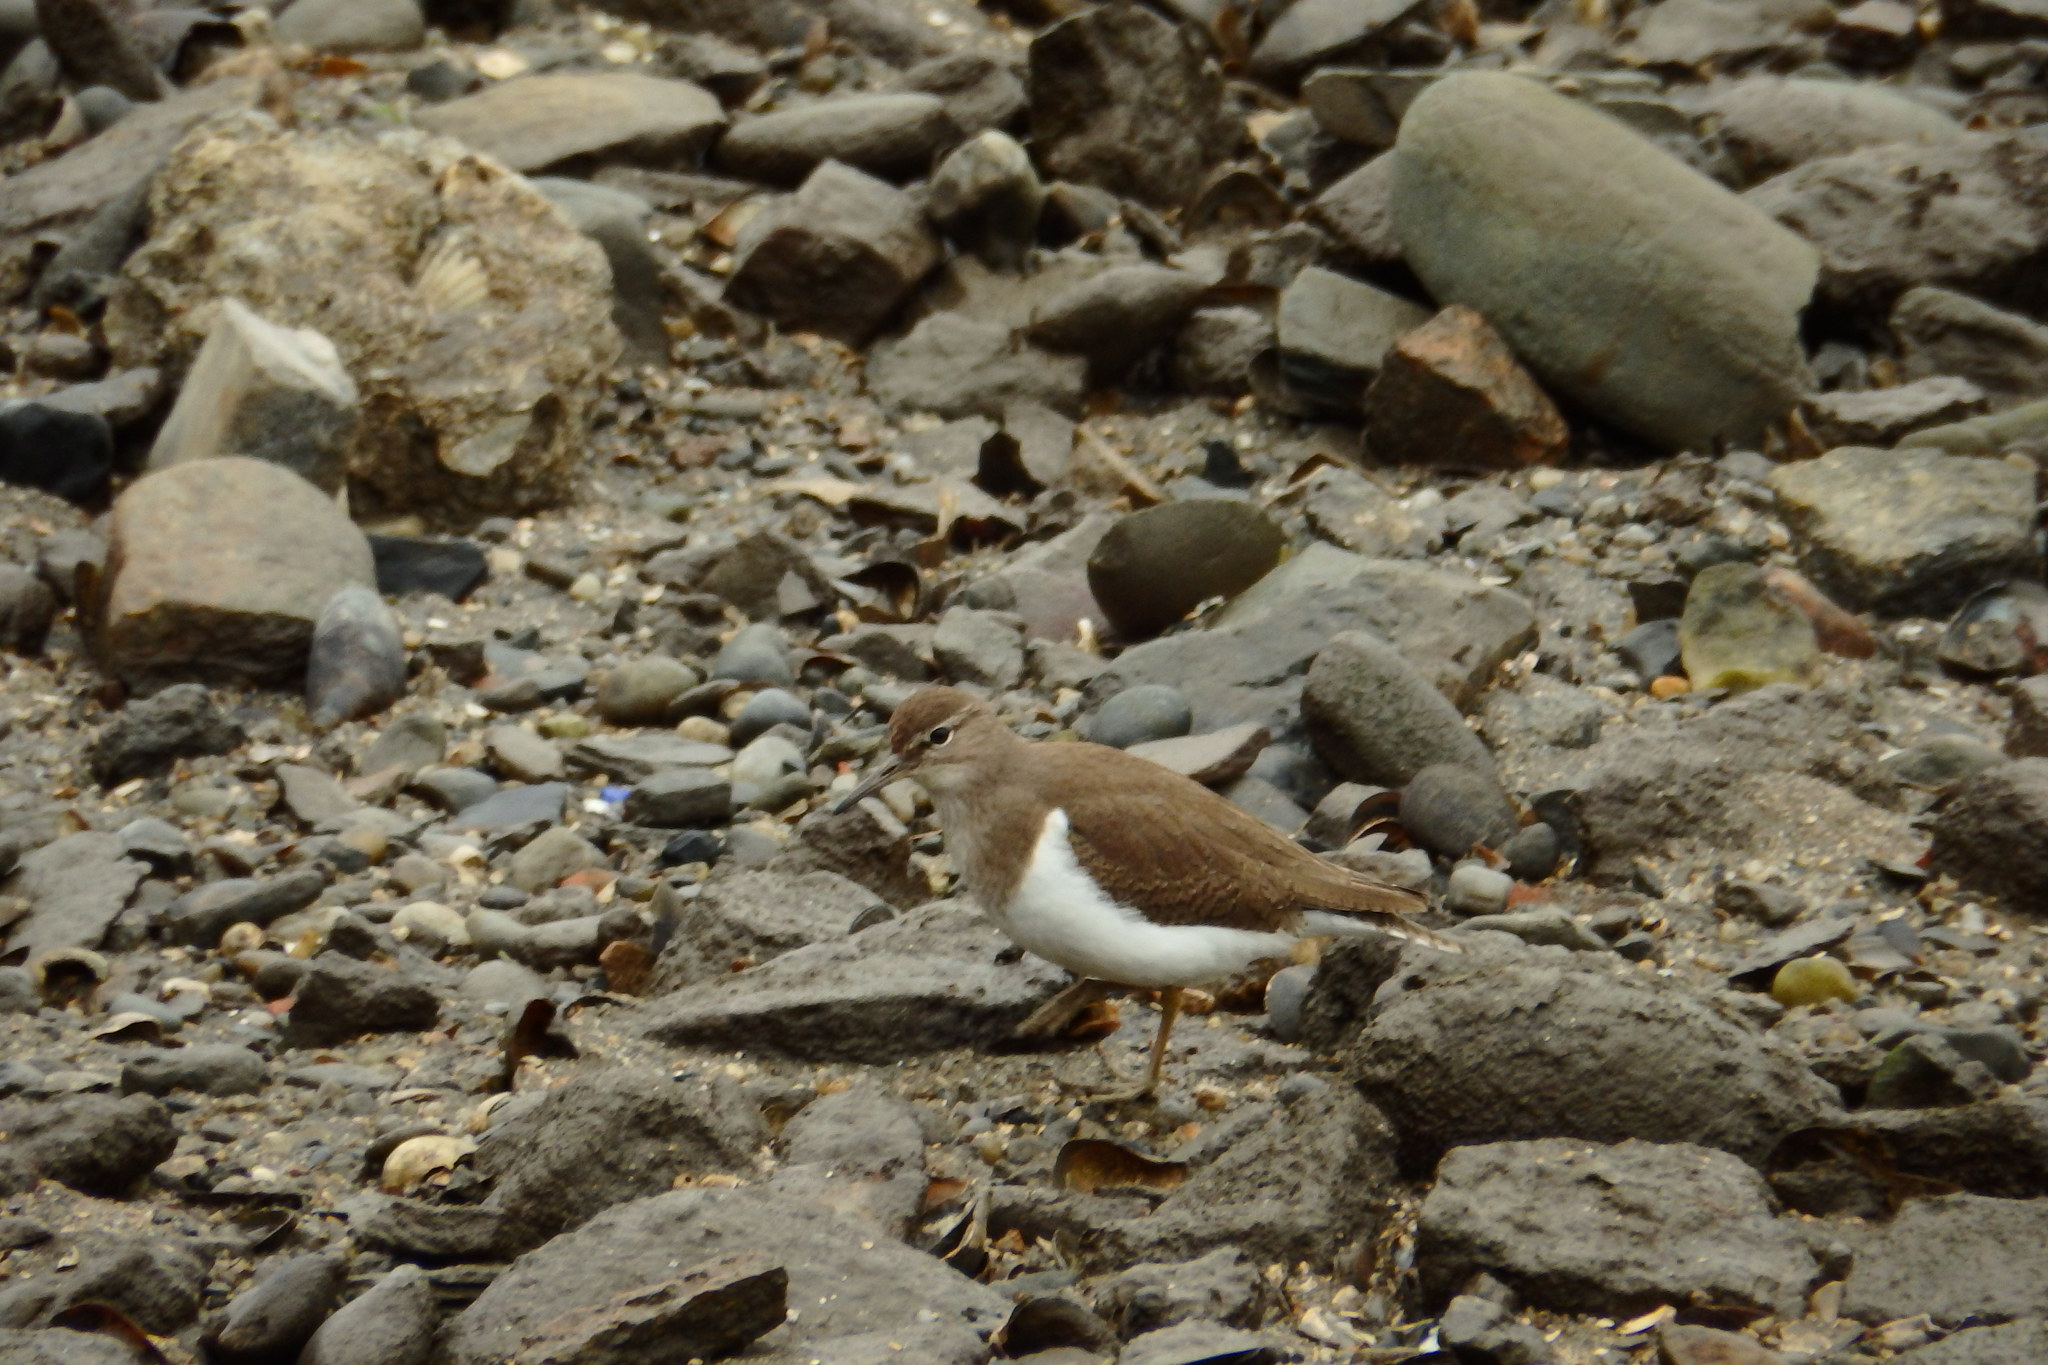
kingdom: Animalia
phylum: Chordata
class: Aves
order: Charadriiformes
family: Scolopacidae
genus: Actitis
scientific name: Actitis hypoleucos
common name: Common sandpiper
